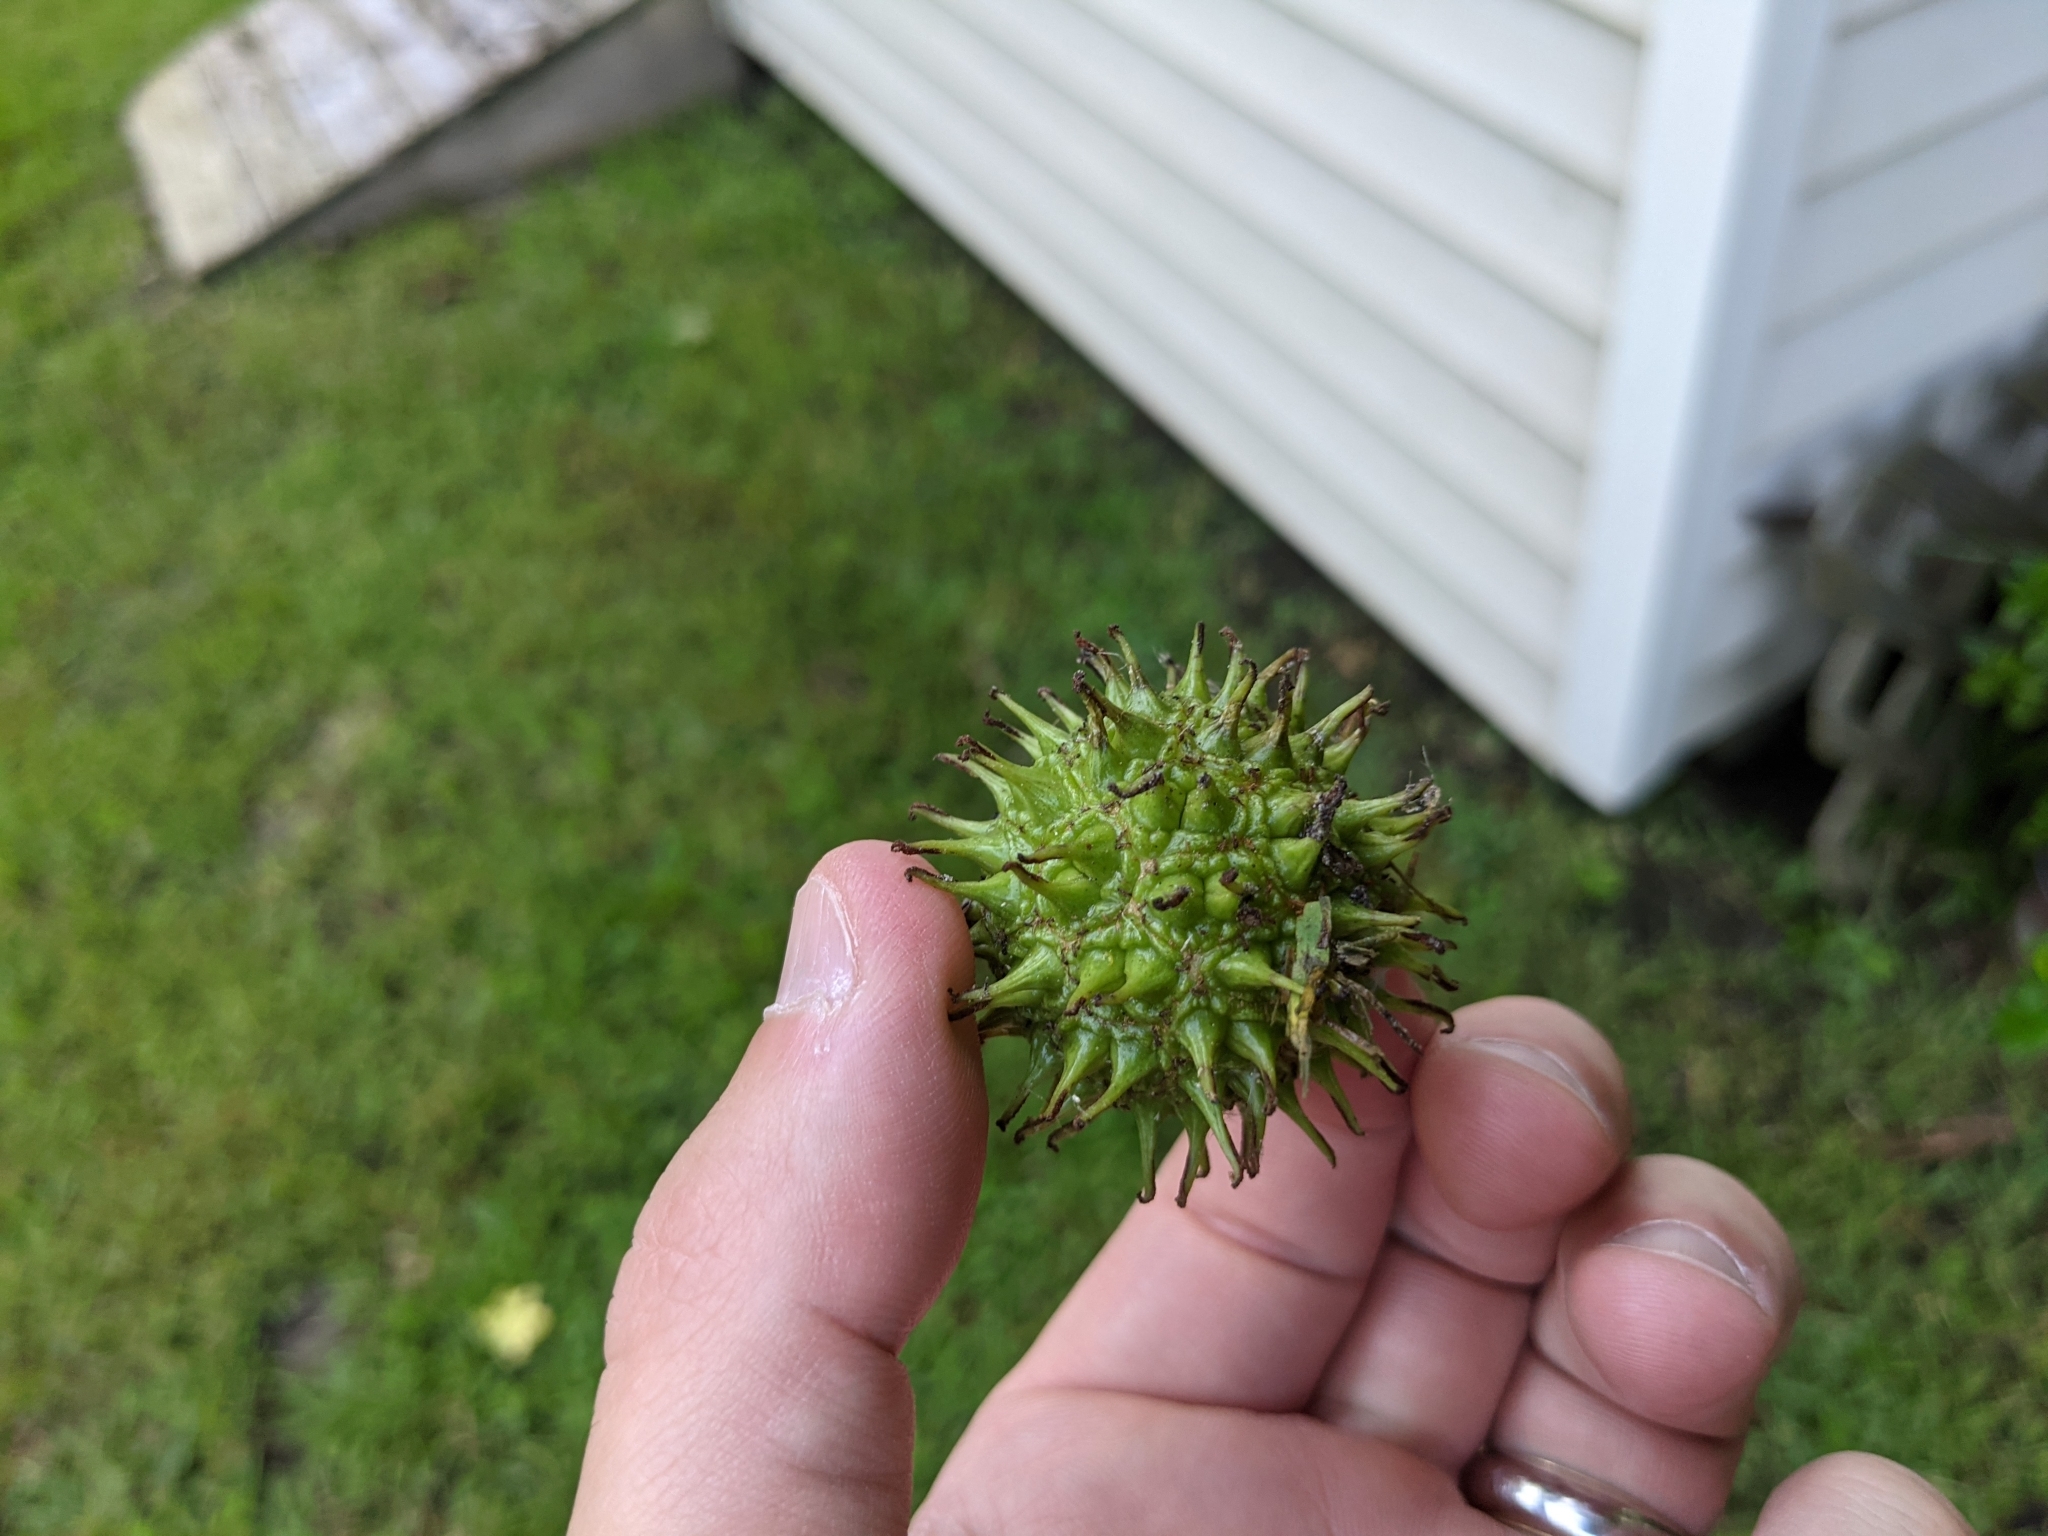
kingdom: Plantae
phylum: Tracheophyta
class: Magnoliopsida
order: Saxifragales
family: Altingiaceae
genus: Liquidambar
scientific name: Liquidambar styraciflua
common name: Sweet gum
